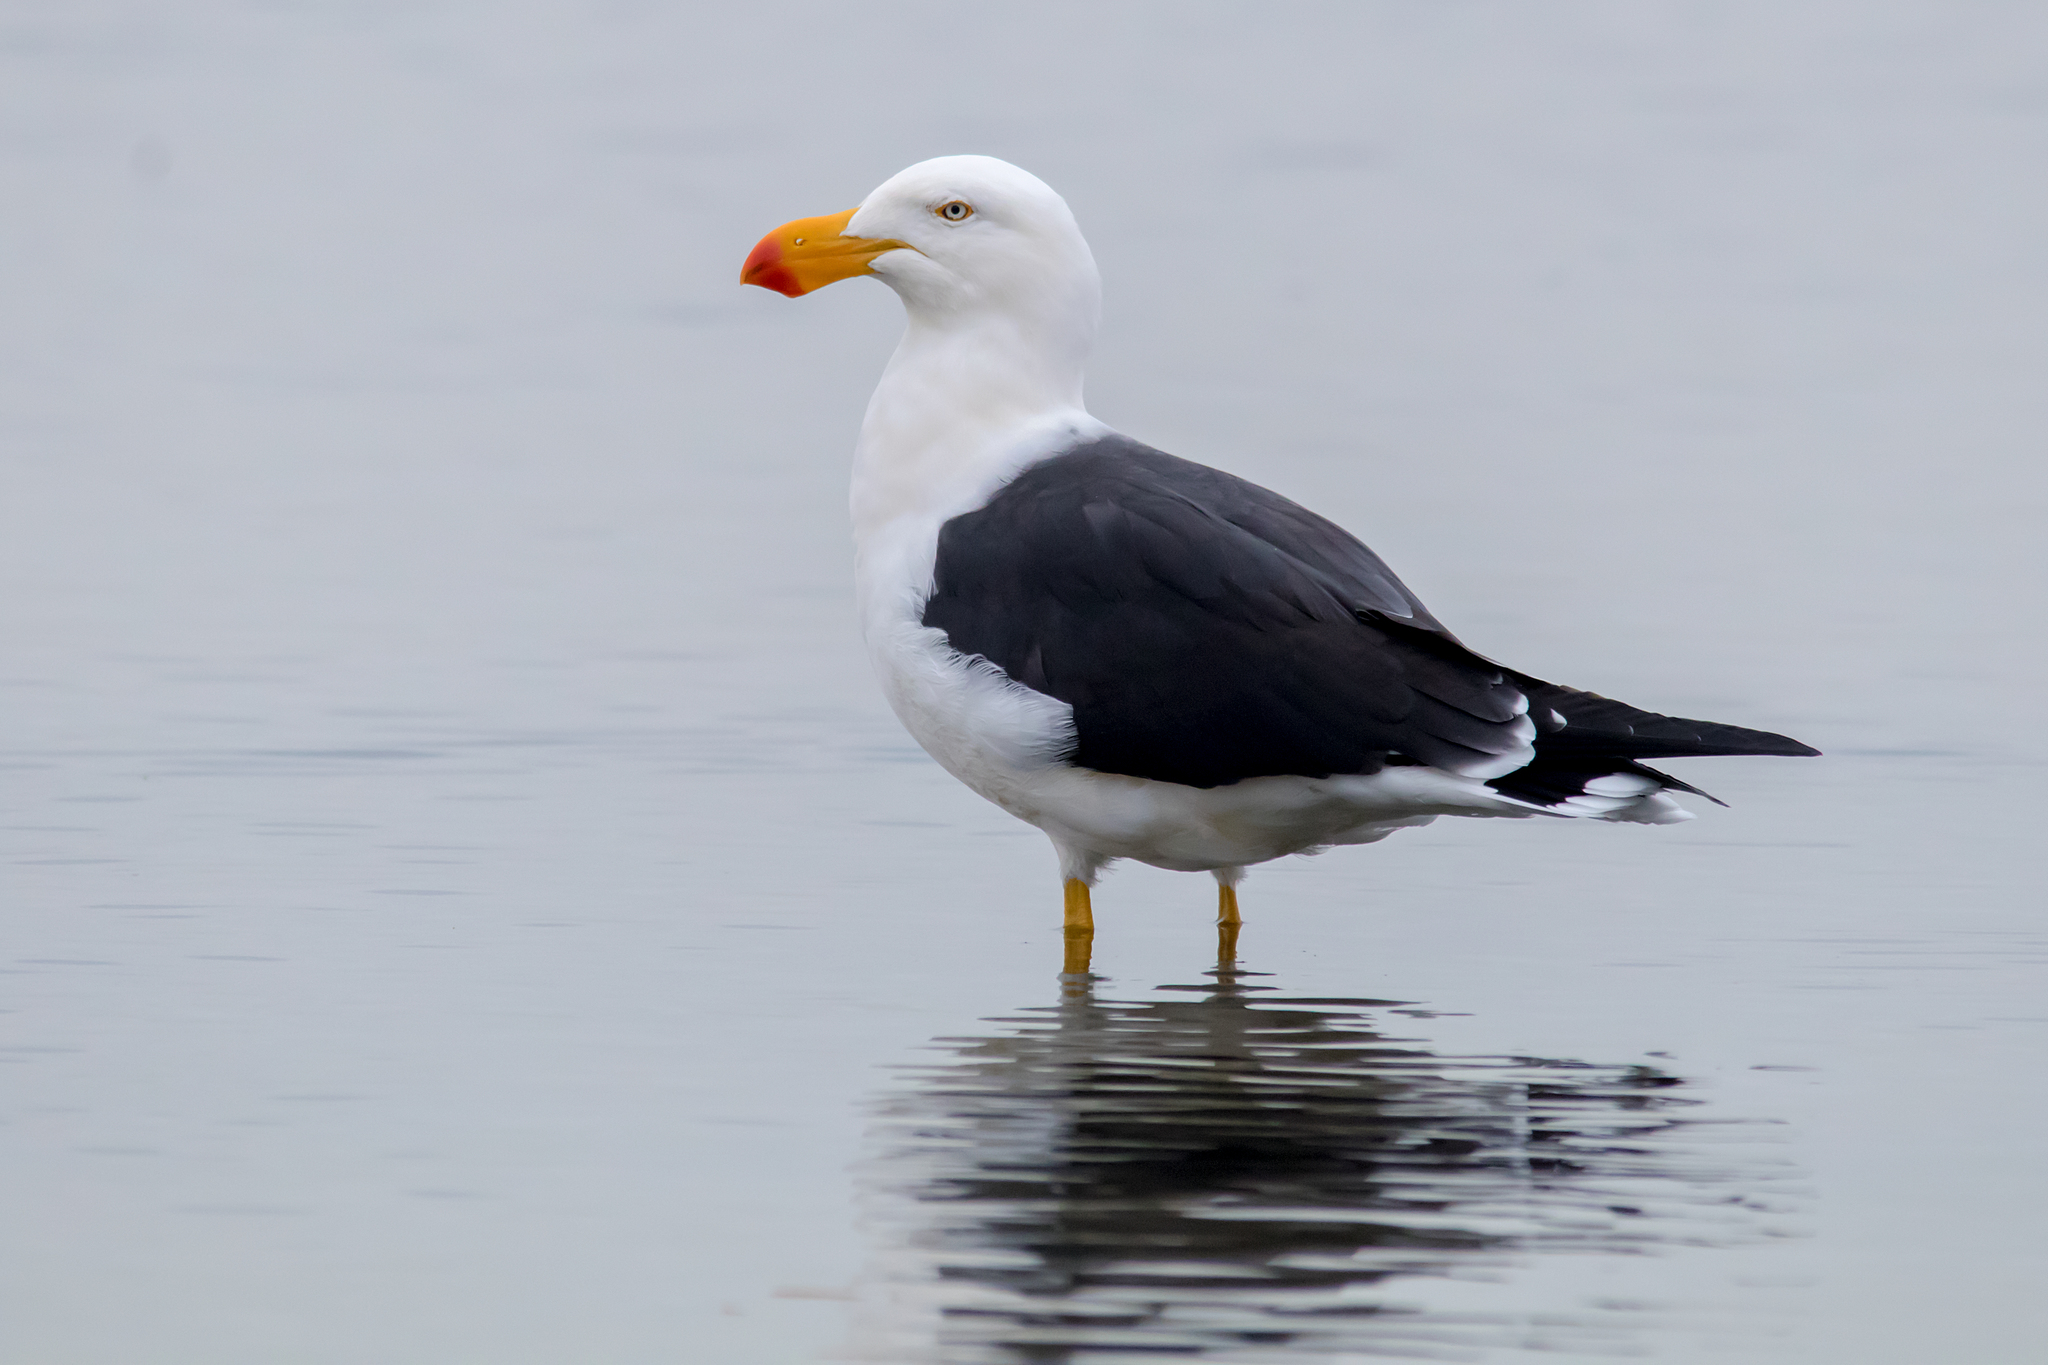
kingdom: Animalia
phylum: Chordata
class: Aves
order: Charadriiformes
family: Laridae
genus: Larus
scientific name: Larus pacificus
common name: Pacific gull
